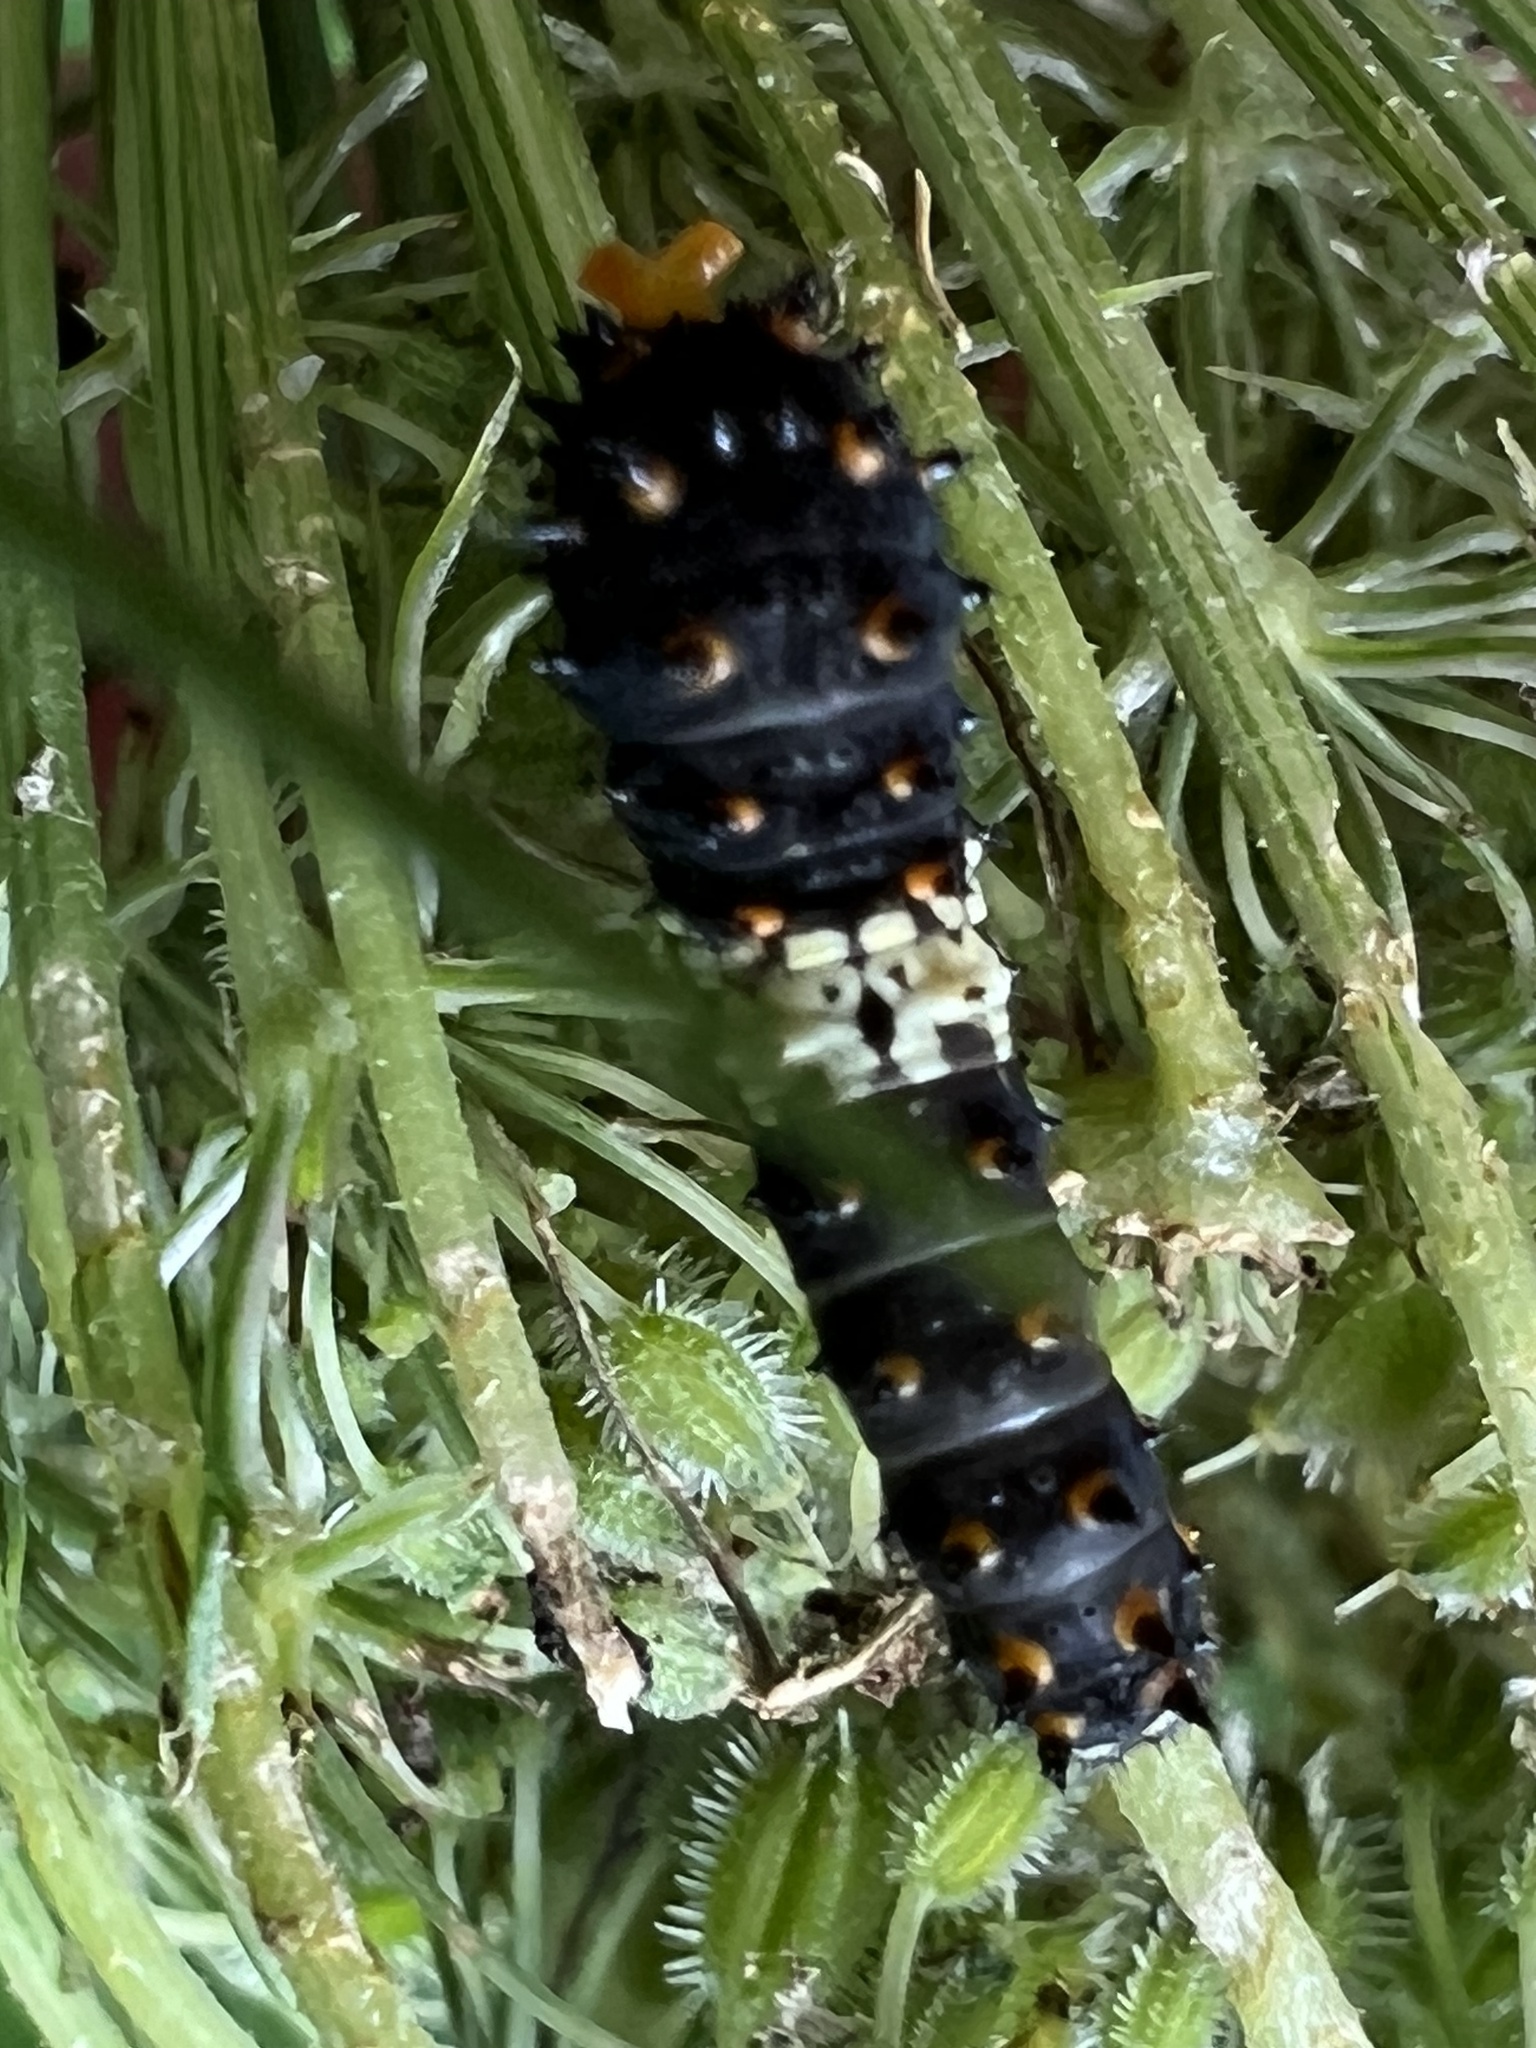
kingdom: Animalia
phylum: Arthropoda
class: Insecta
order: Lepidoptera
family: Papilionidae
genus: Papilio
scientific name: Papilio polyxenes
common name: Black swallowtail
